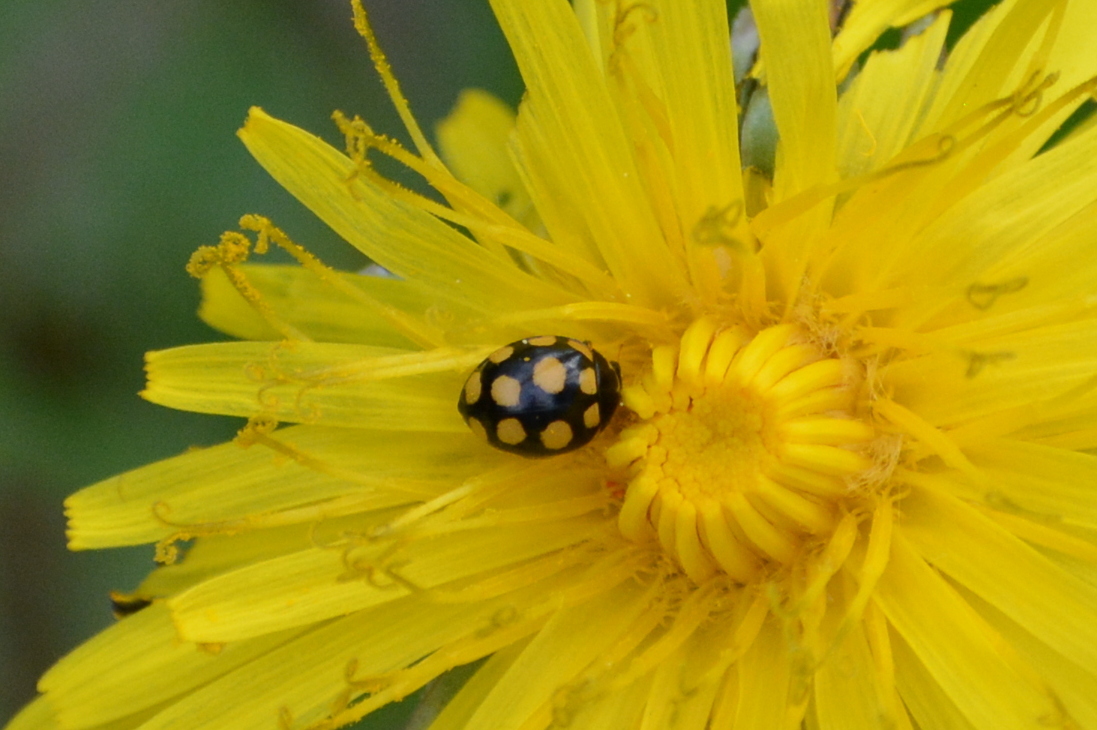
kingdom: Animalia
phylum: Arthropoda
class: Insecta
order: Coleoptera
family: Coccinellidae
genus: Coccinula
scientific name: Coccinula quatuordecimpustulata
